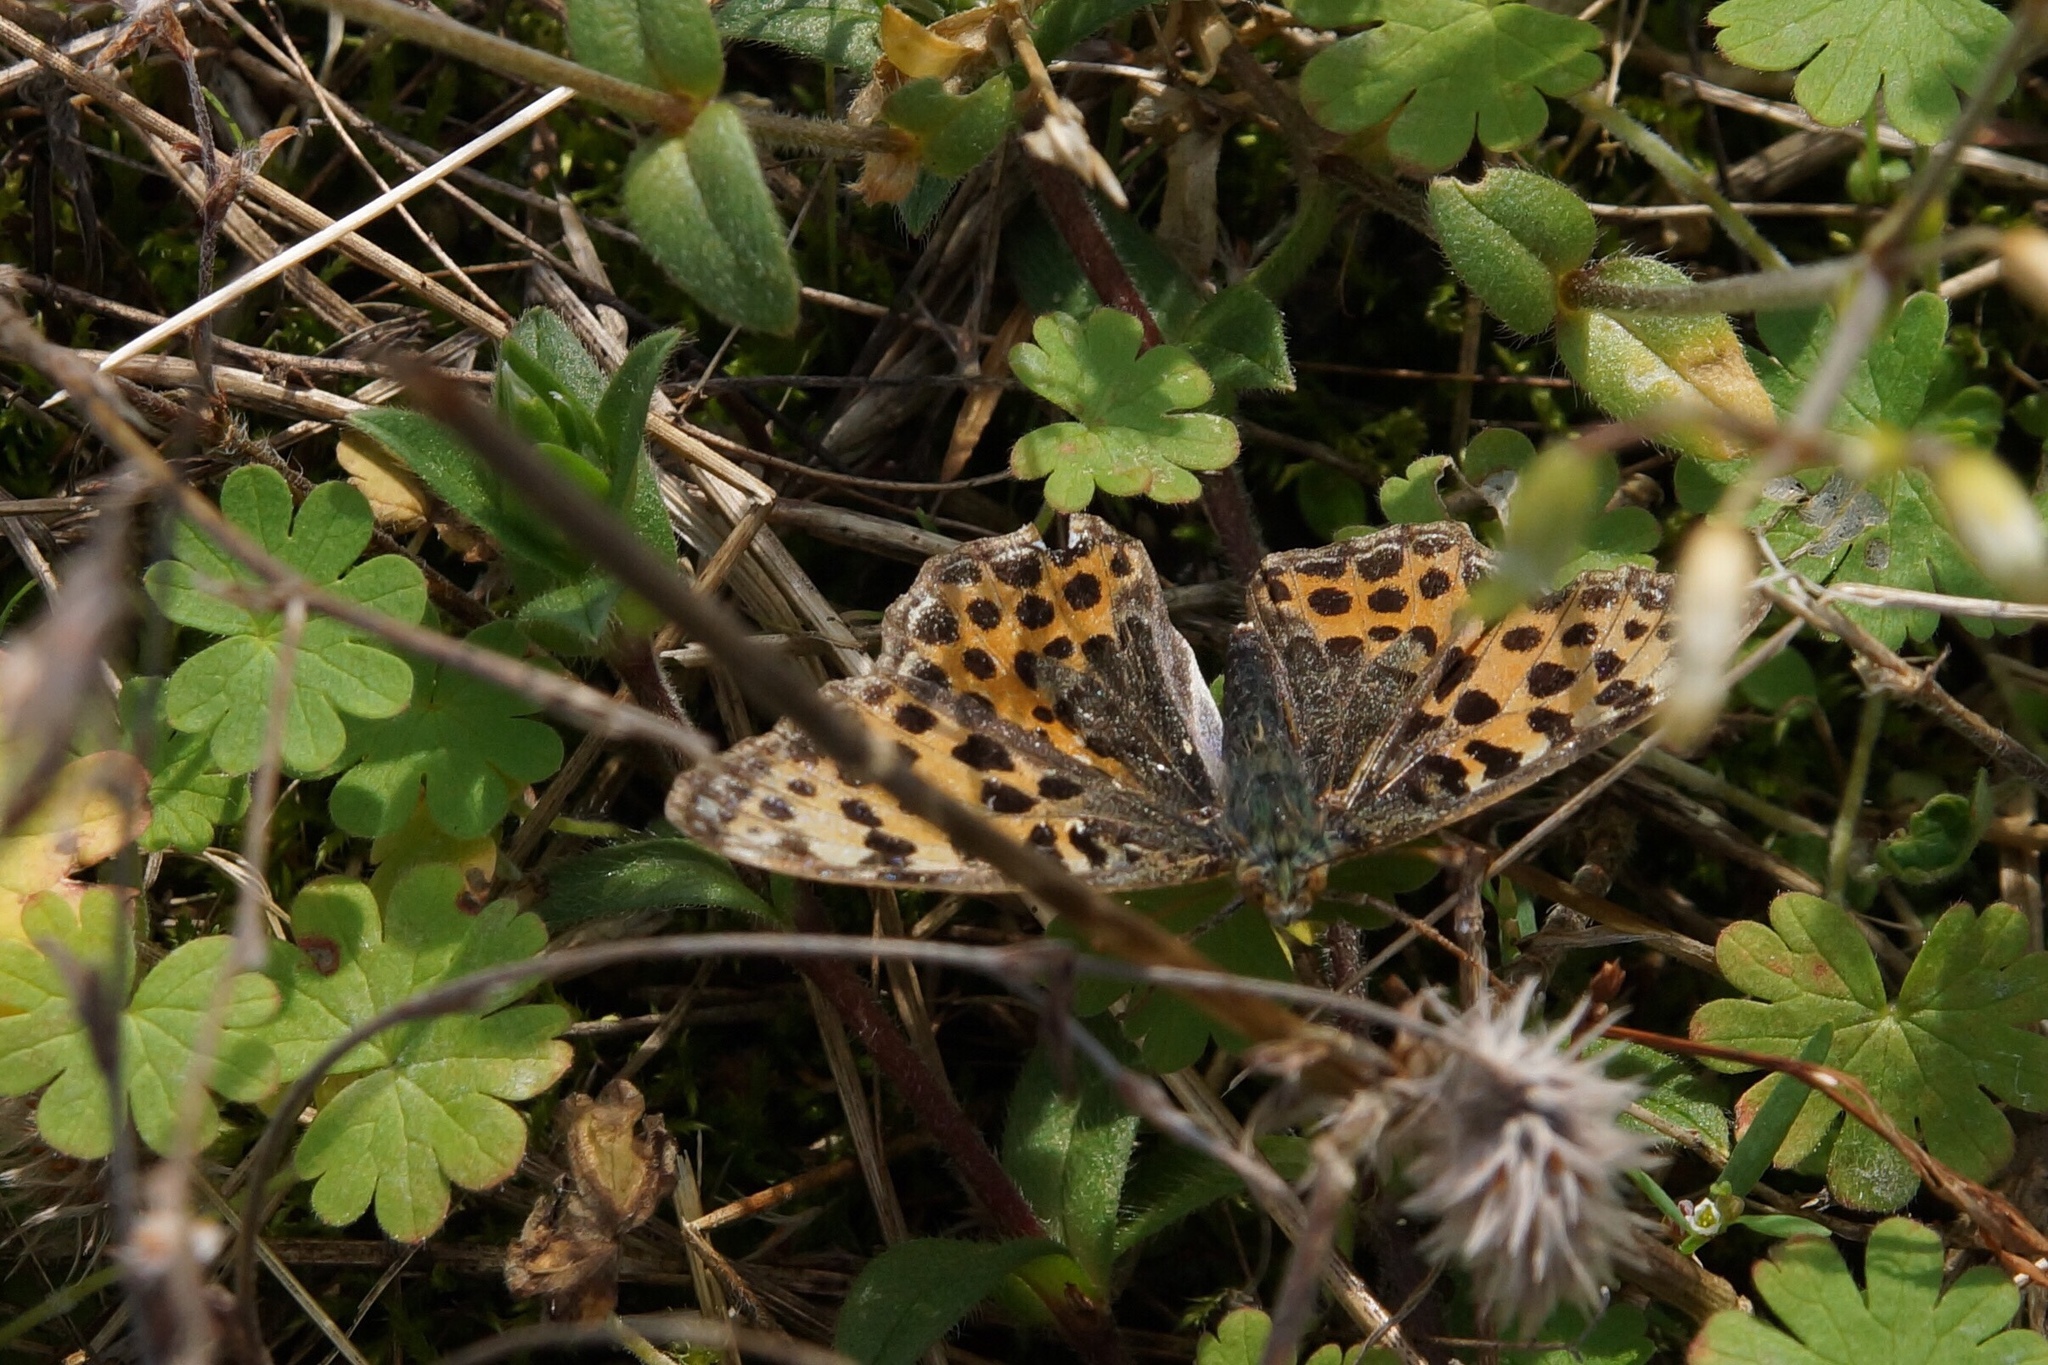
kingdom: Animalia
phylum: Arthropoda
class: Insecta
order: Lepidoptera
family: Nymphalidae
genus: Issoria
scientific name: Issoria lathonia
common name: Queen of spain fritillary
